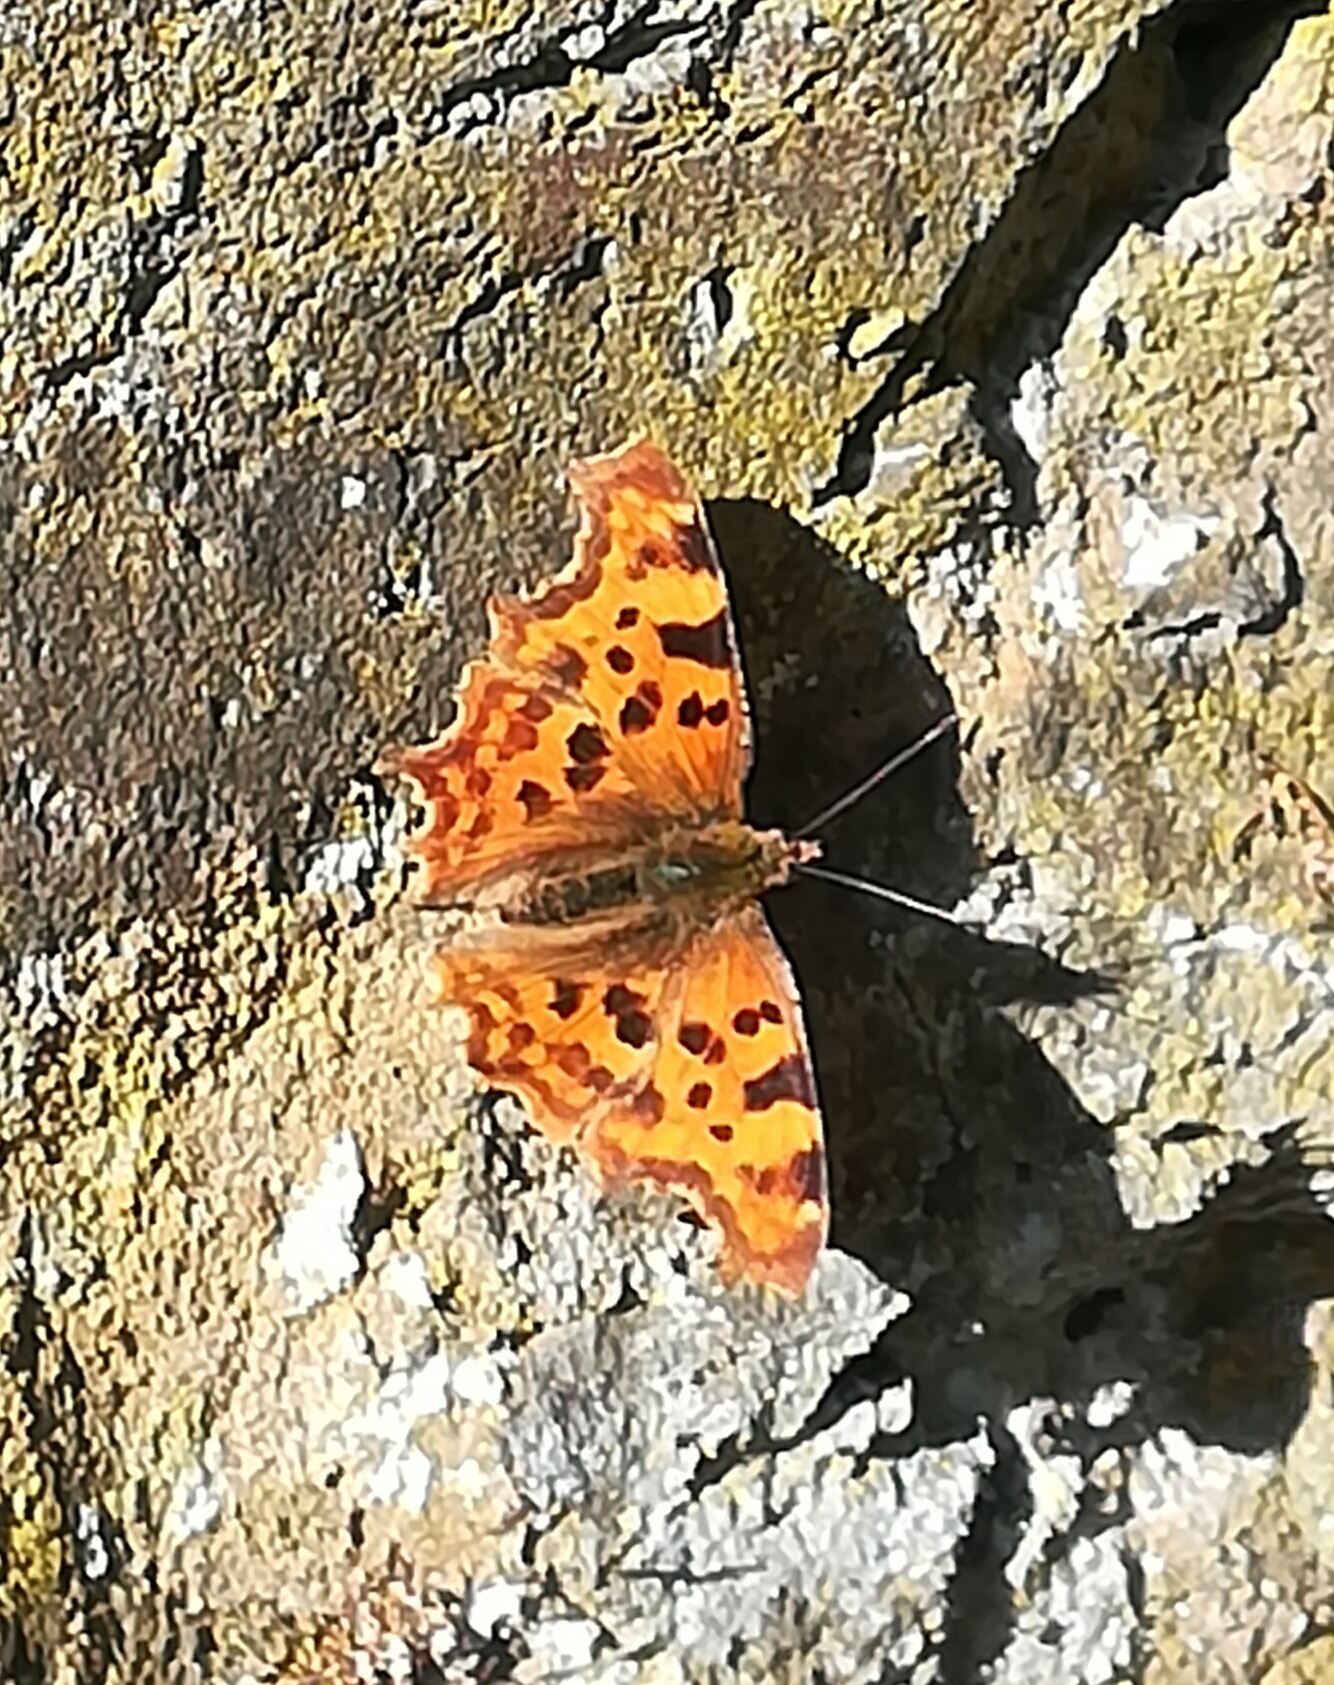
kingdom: Animalia
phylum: Arthropoda
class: Insecta
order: Lepidoptera
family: Nymphalidae
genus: Polygonia
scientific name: Polygonia c-album
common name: Comma
